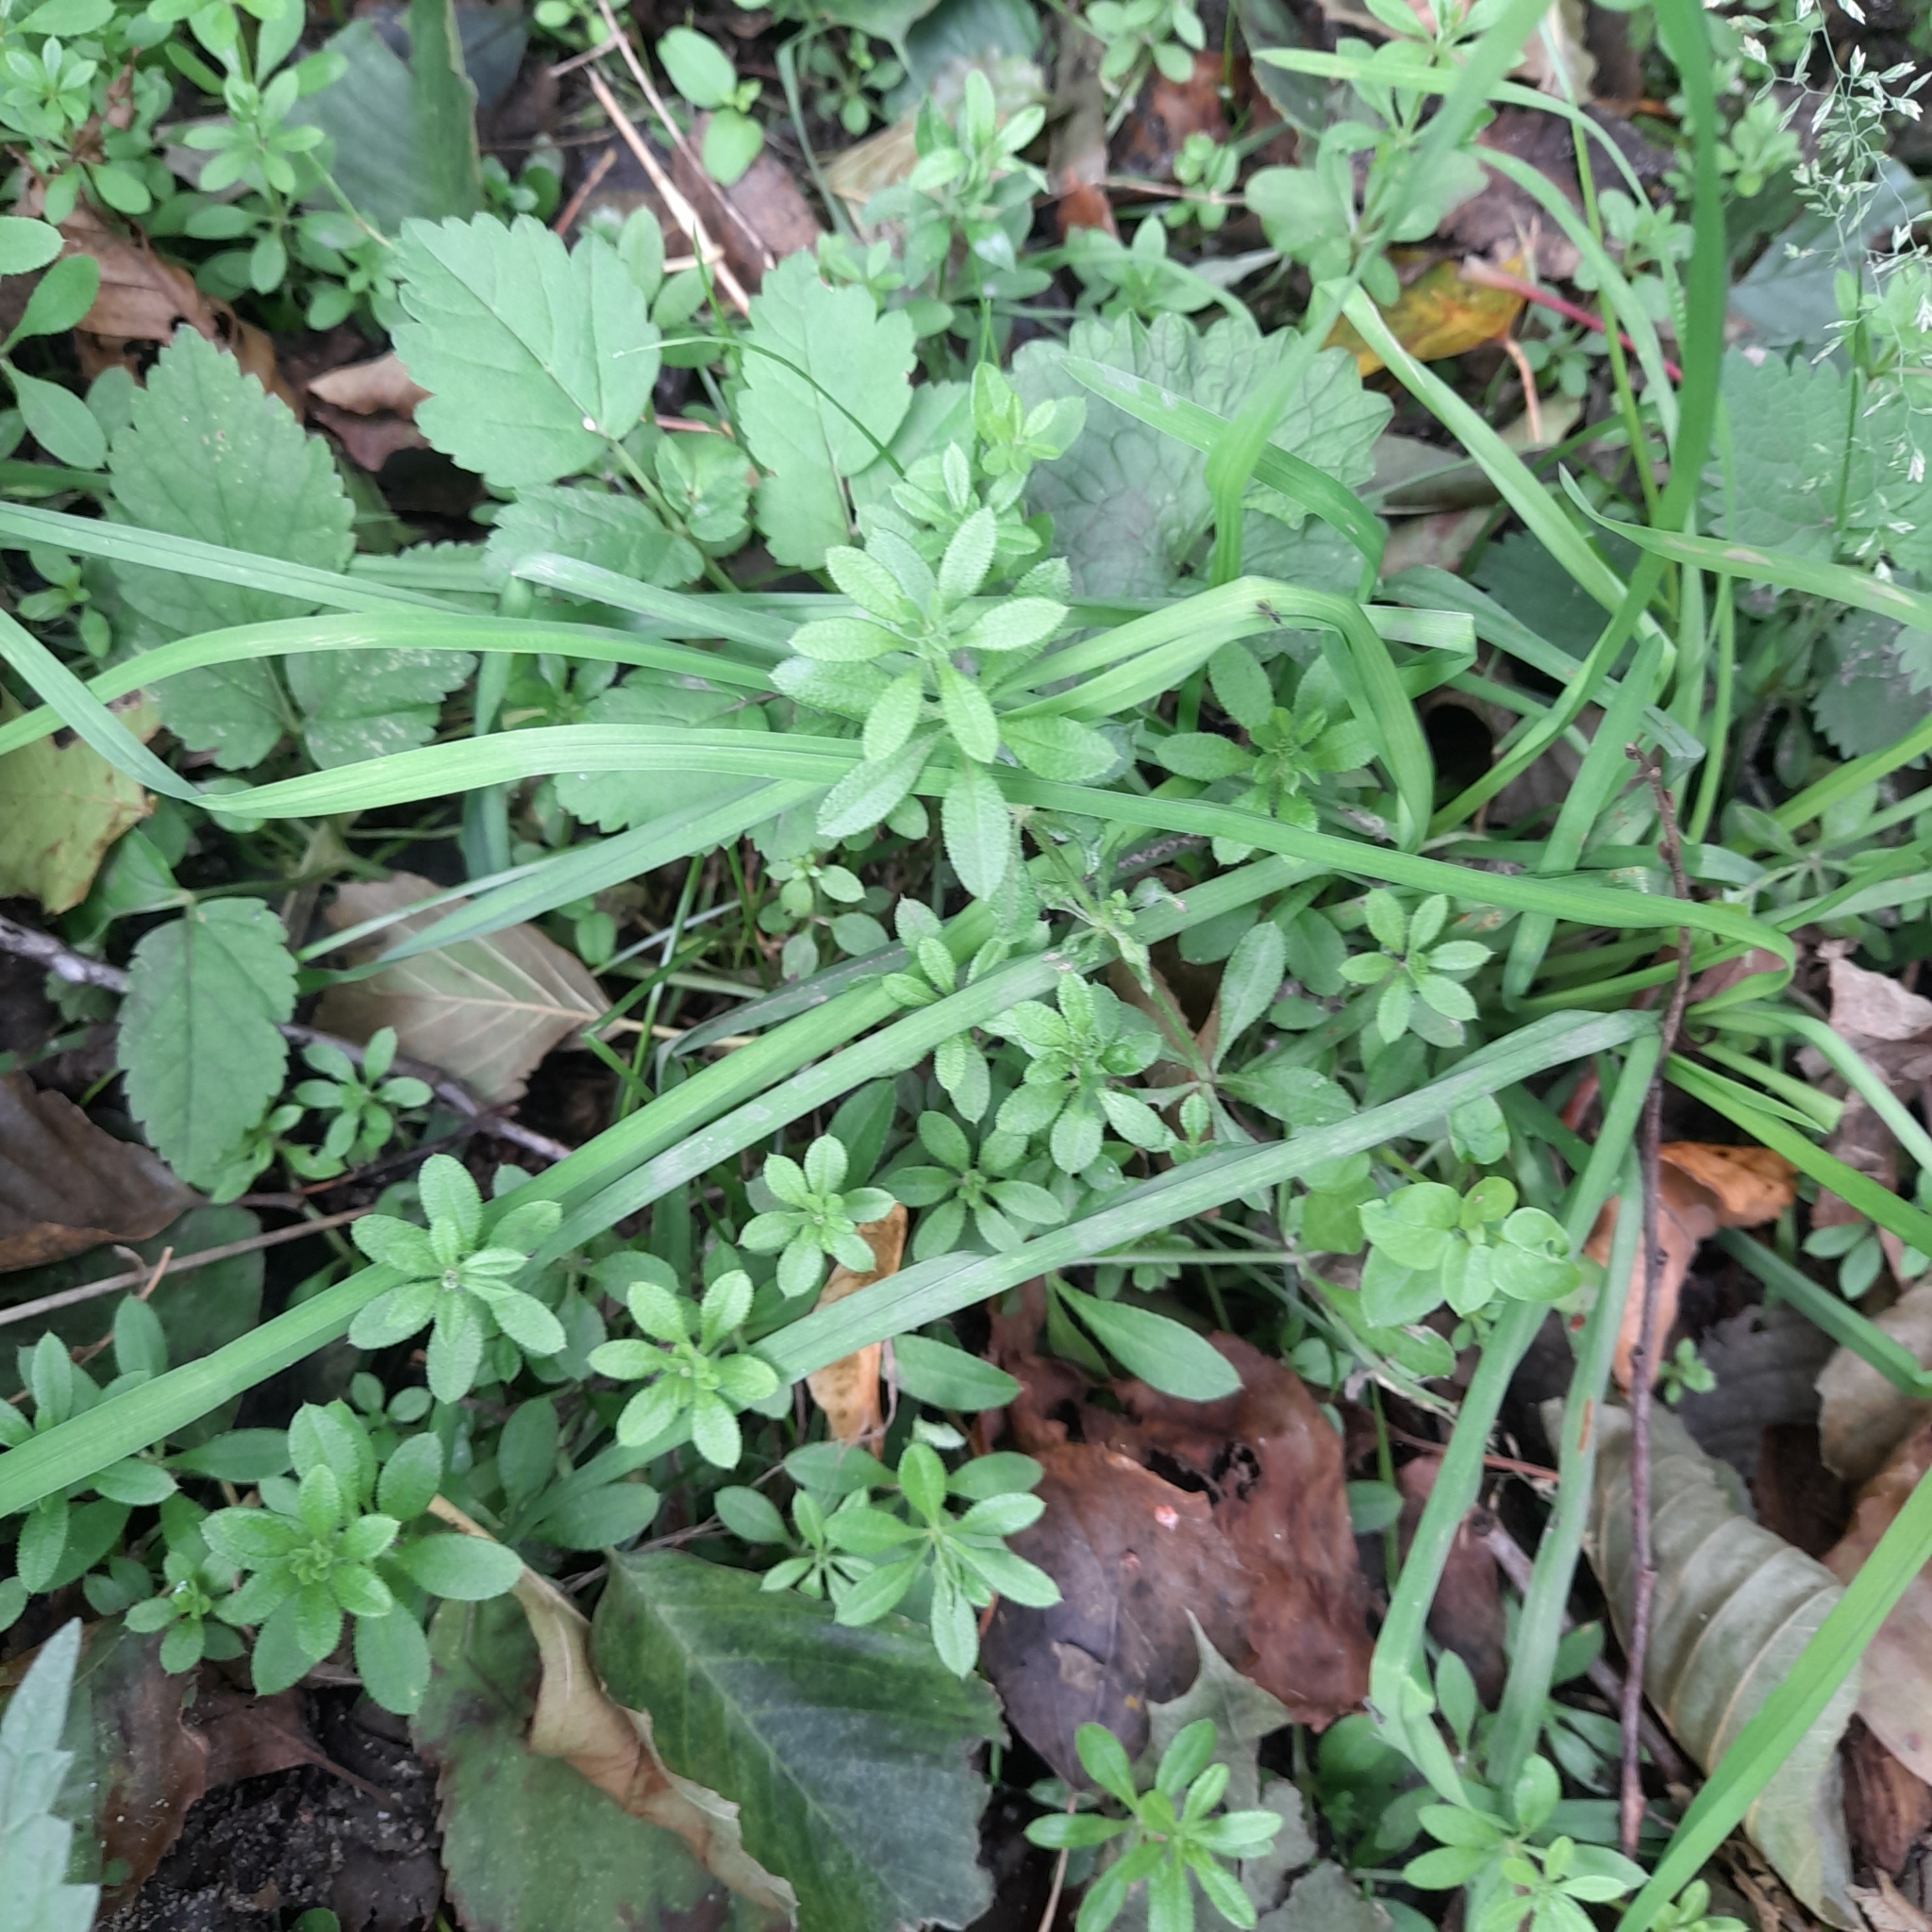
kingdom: Plantae
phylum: Tracheophyta
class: Magnoliopsida
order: Gentianales
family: Rubiaceae
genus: Galium
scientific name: Galium aparine
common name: Cleavers
